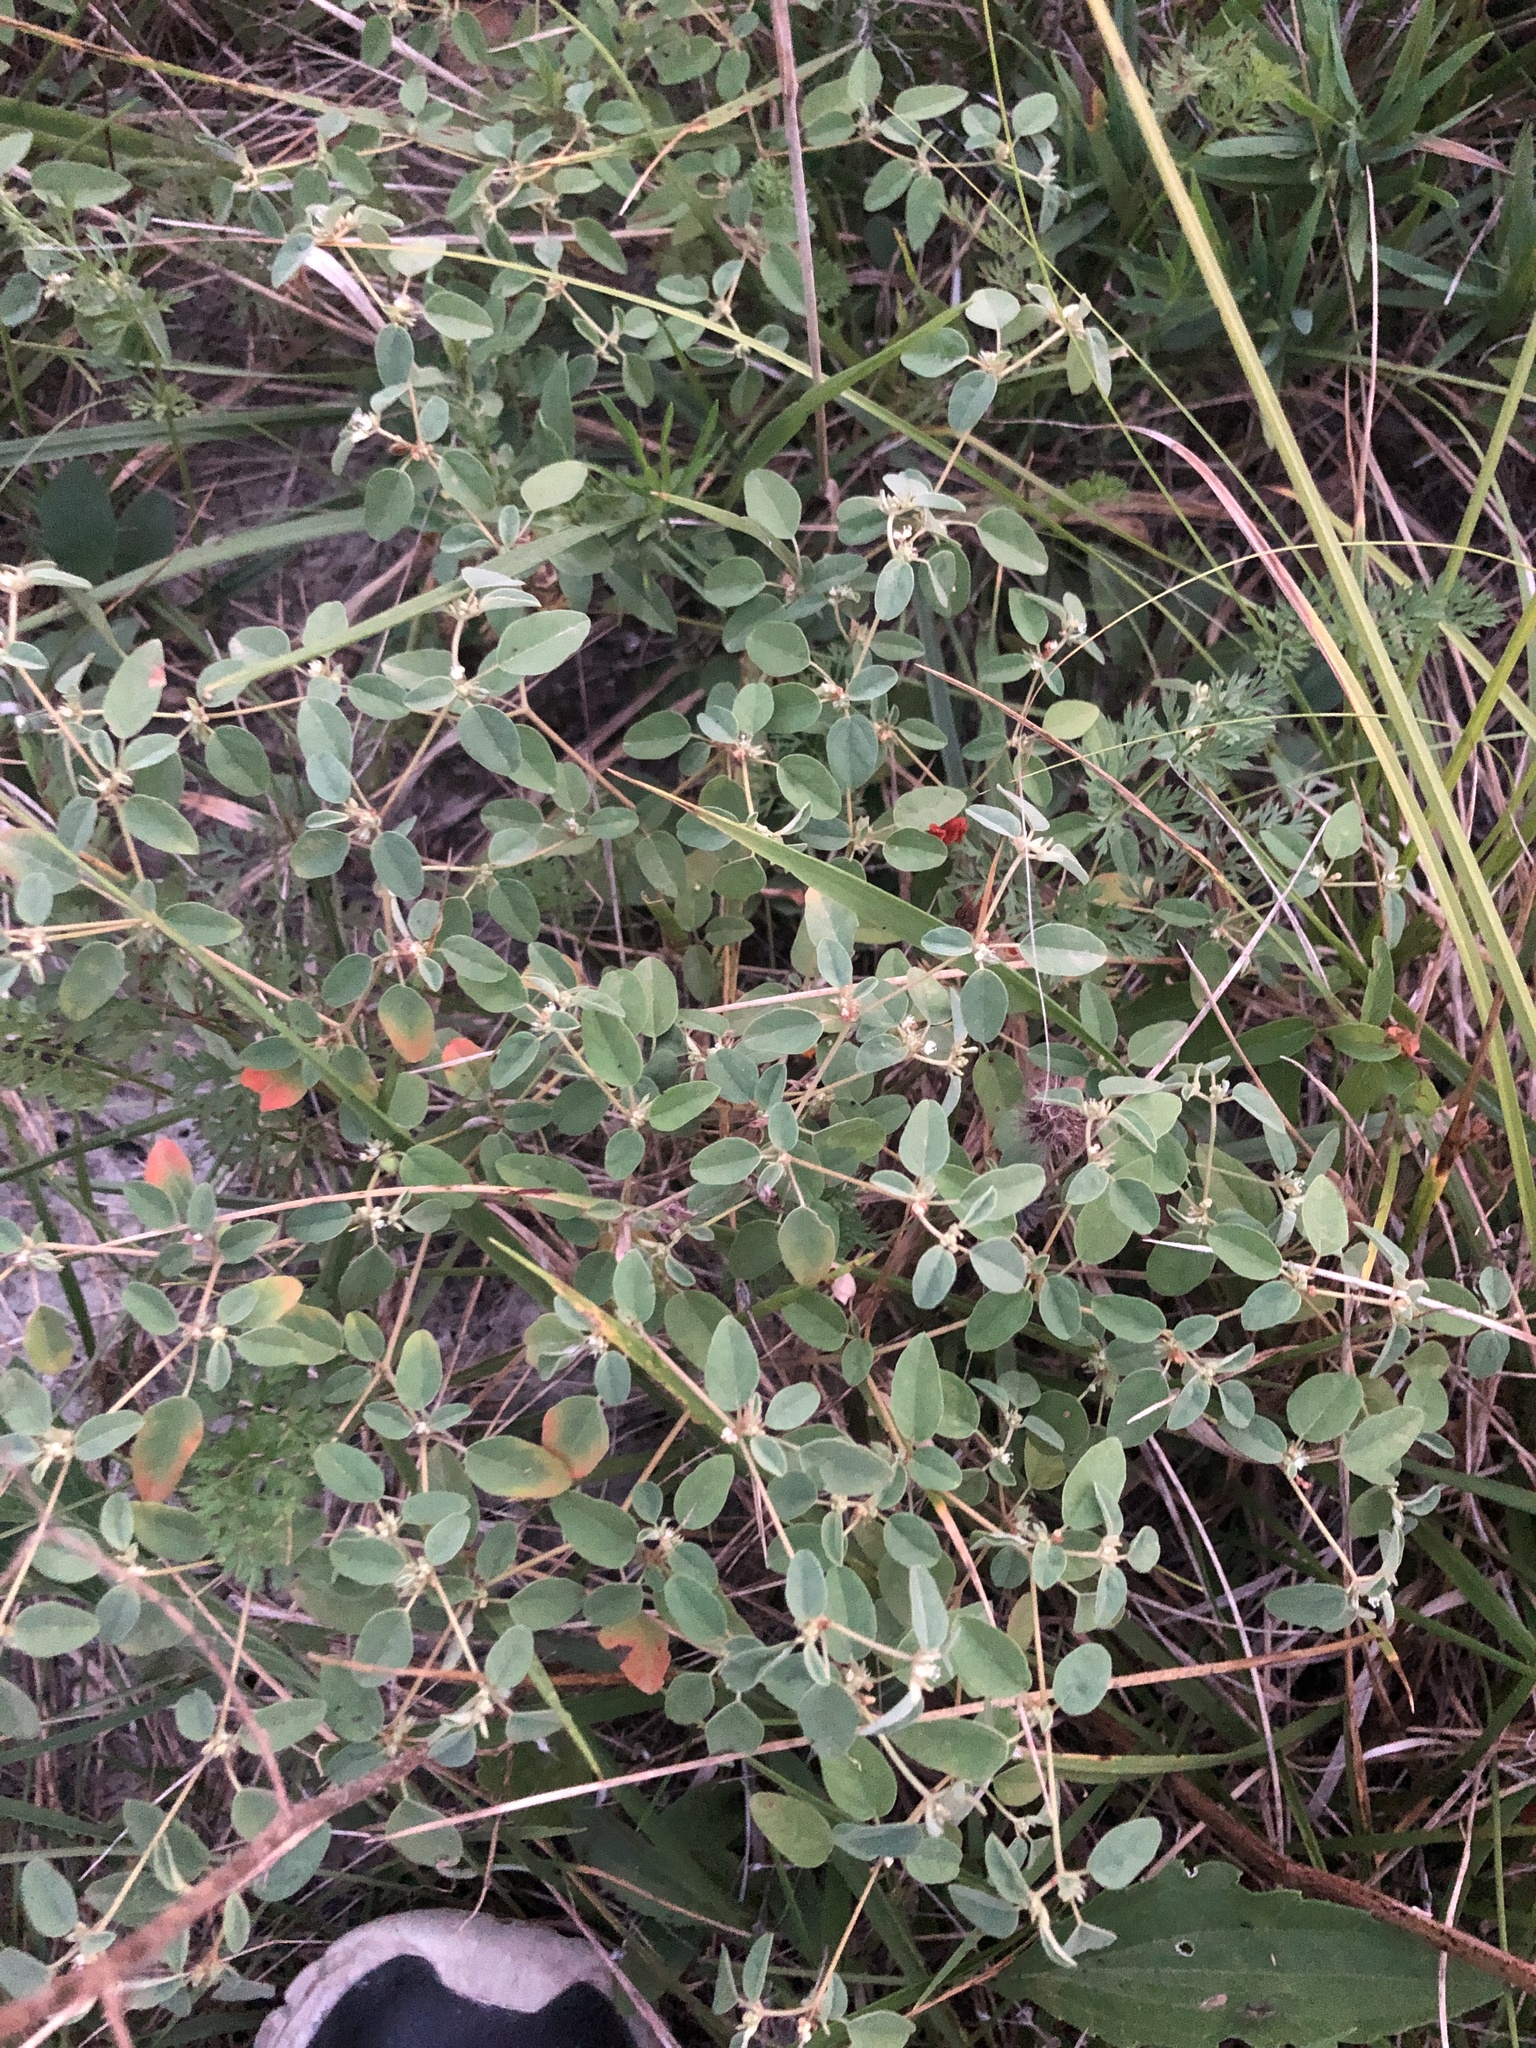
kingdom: Plantae
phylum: Tracheophyta
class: Magnoliopsida
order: Malpighiales
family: Euphorbiaceae
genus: Croton
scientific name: Croton monanthogynus
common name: One-seed croton
